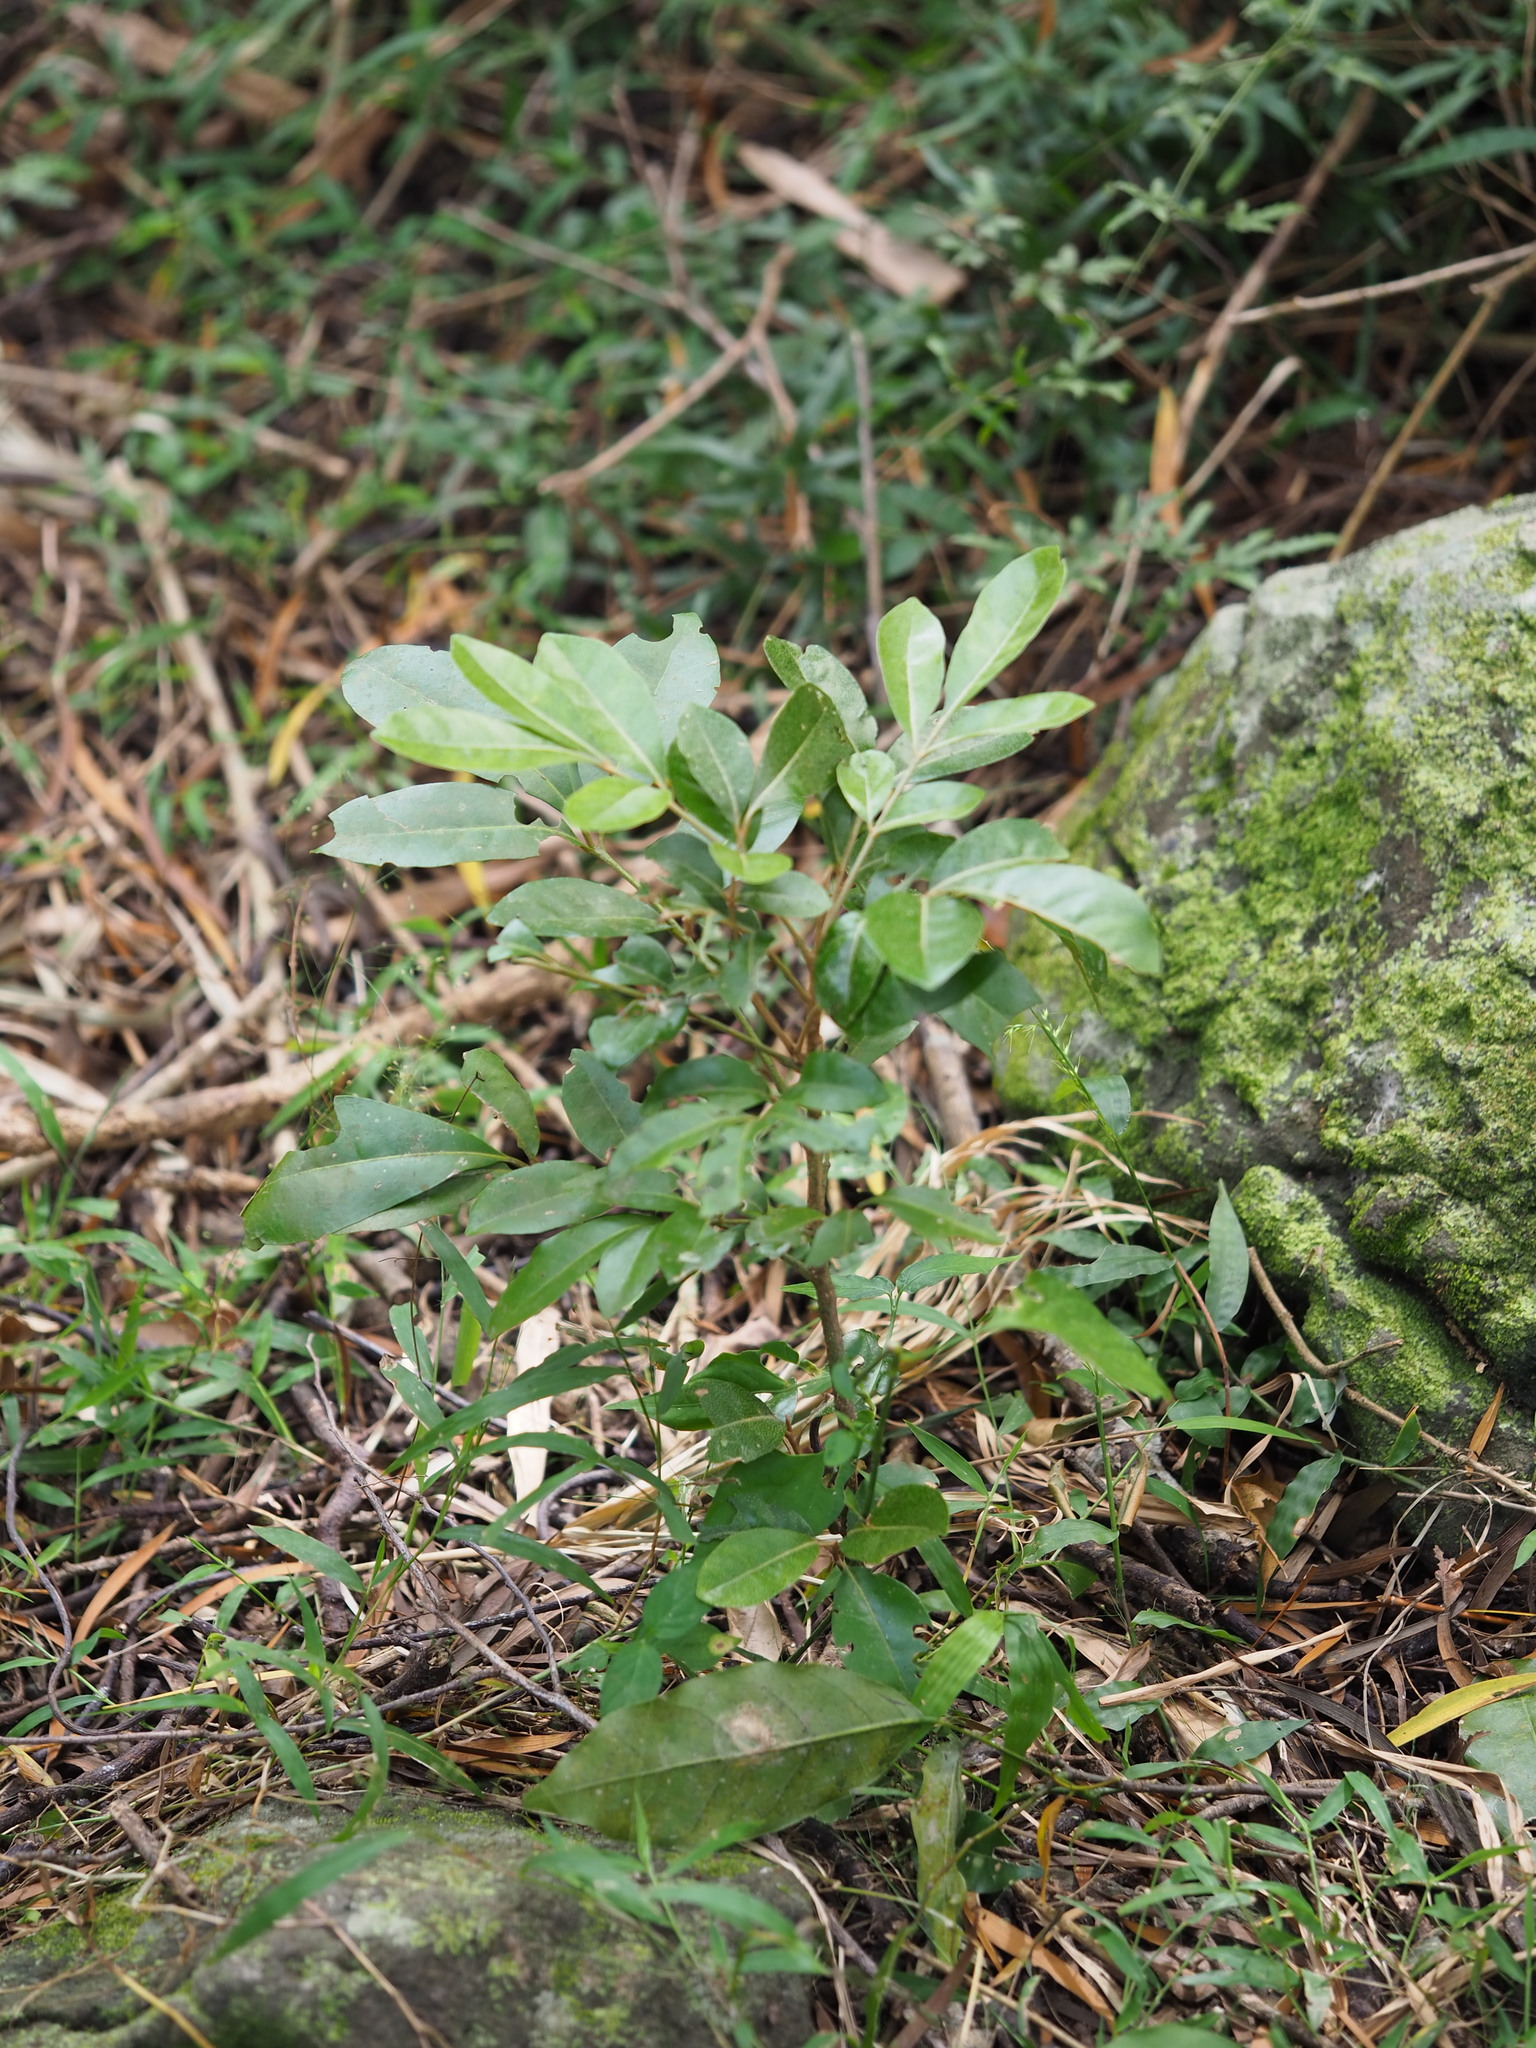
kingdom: Plantae
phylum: Tracheophyta
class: Magnoliopsida
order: Sapindales
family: Meliaceae
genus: Aglaia
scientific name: Aglaia elaeagnoidea
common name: Droopyleaf
